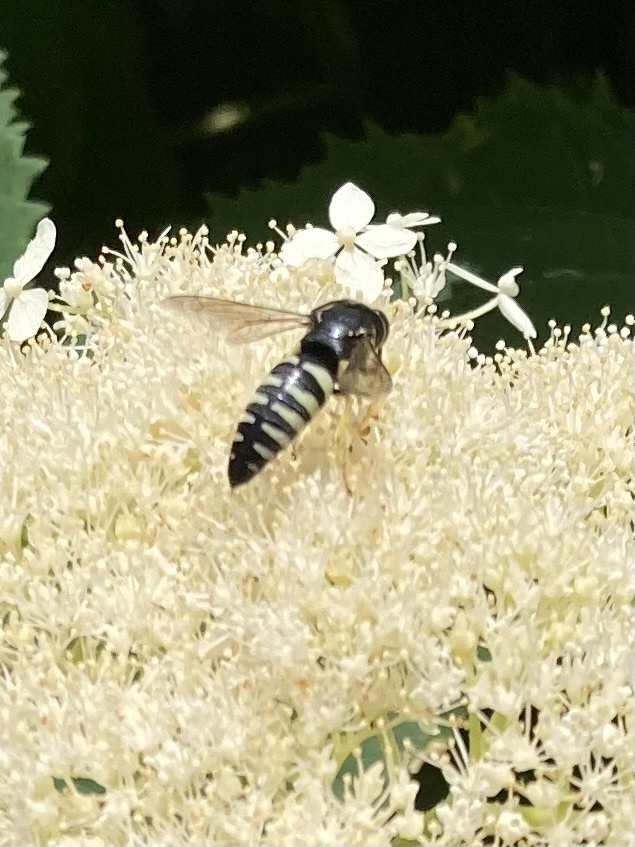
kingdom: Animalia
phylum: Arthropoda
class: Insecta
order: Hymenoptera
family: Crabronidae
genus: Bicyrtes
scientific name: Bicyrtes quadrifasciatus
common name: Four-banded stink bug hunter wasp
